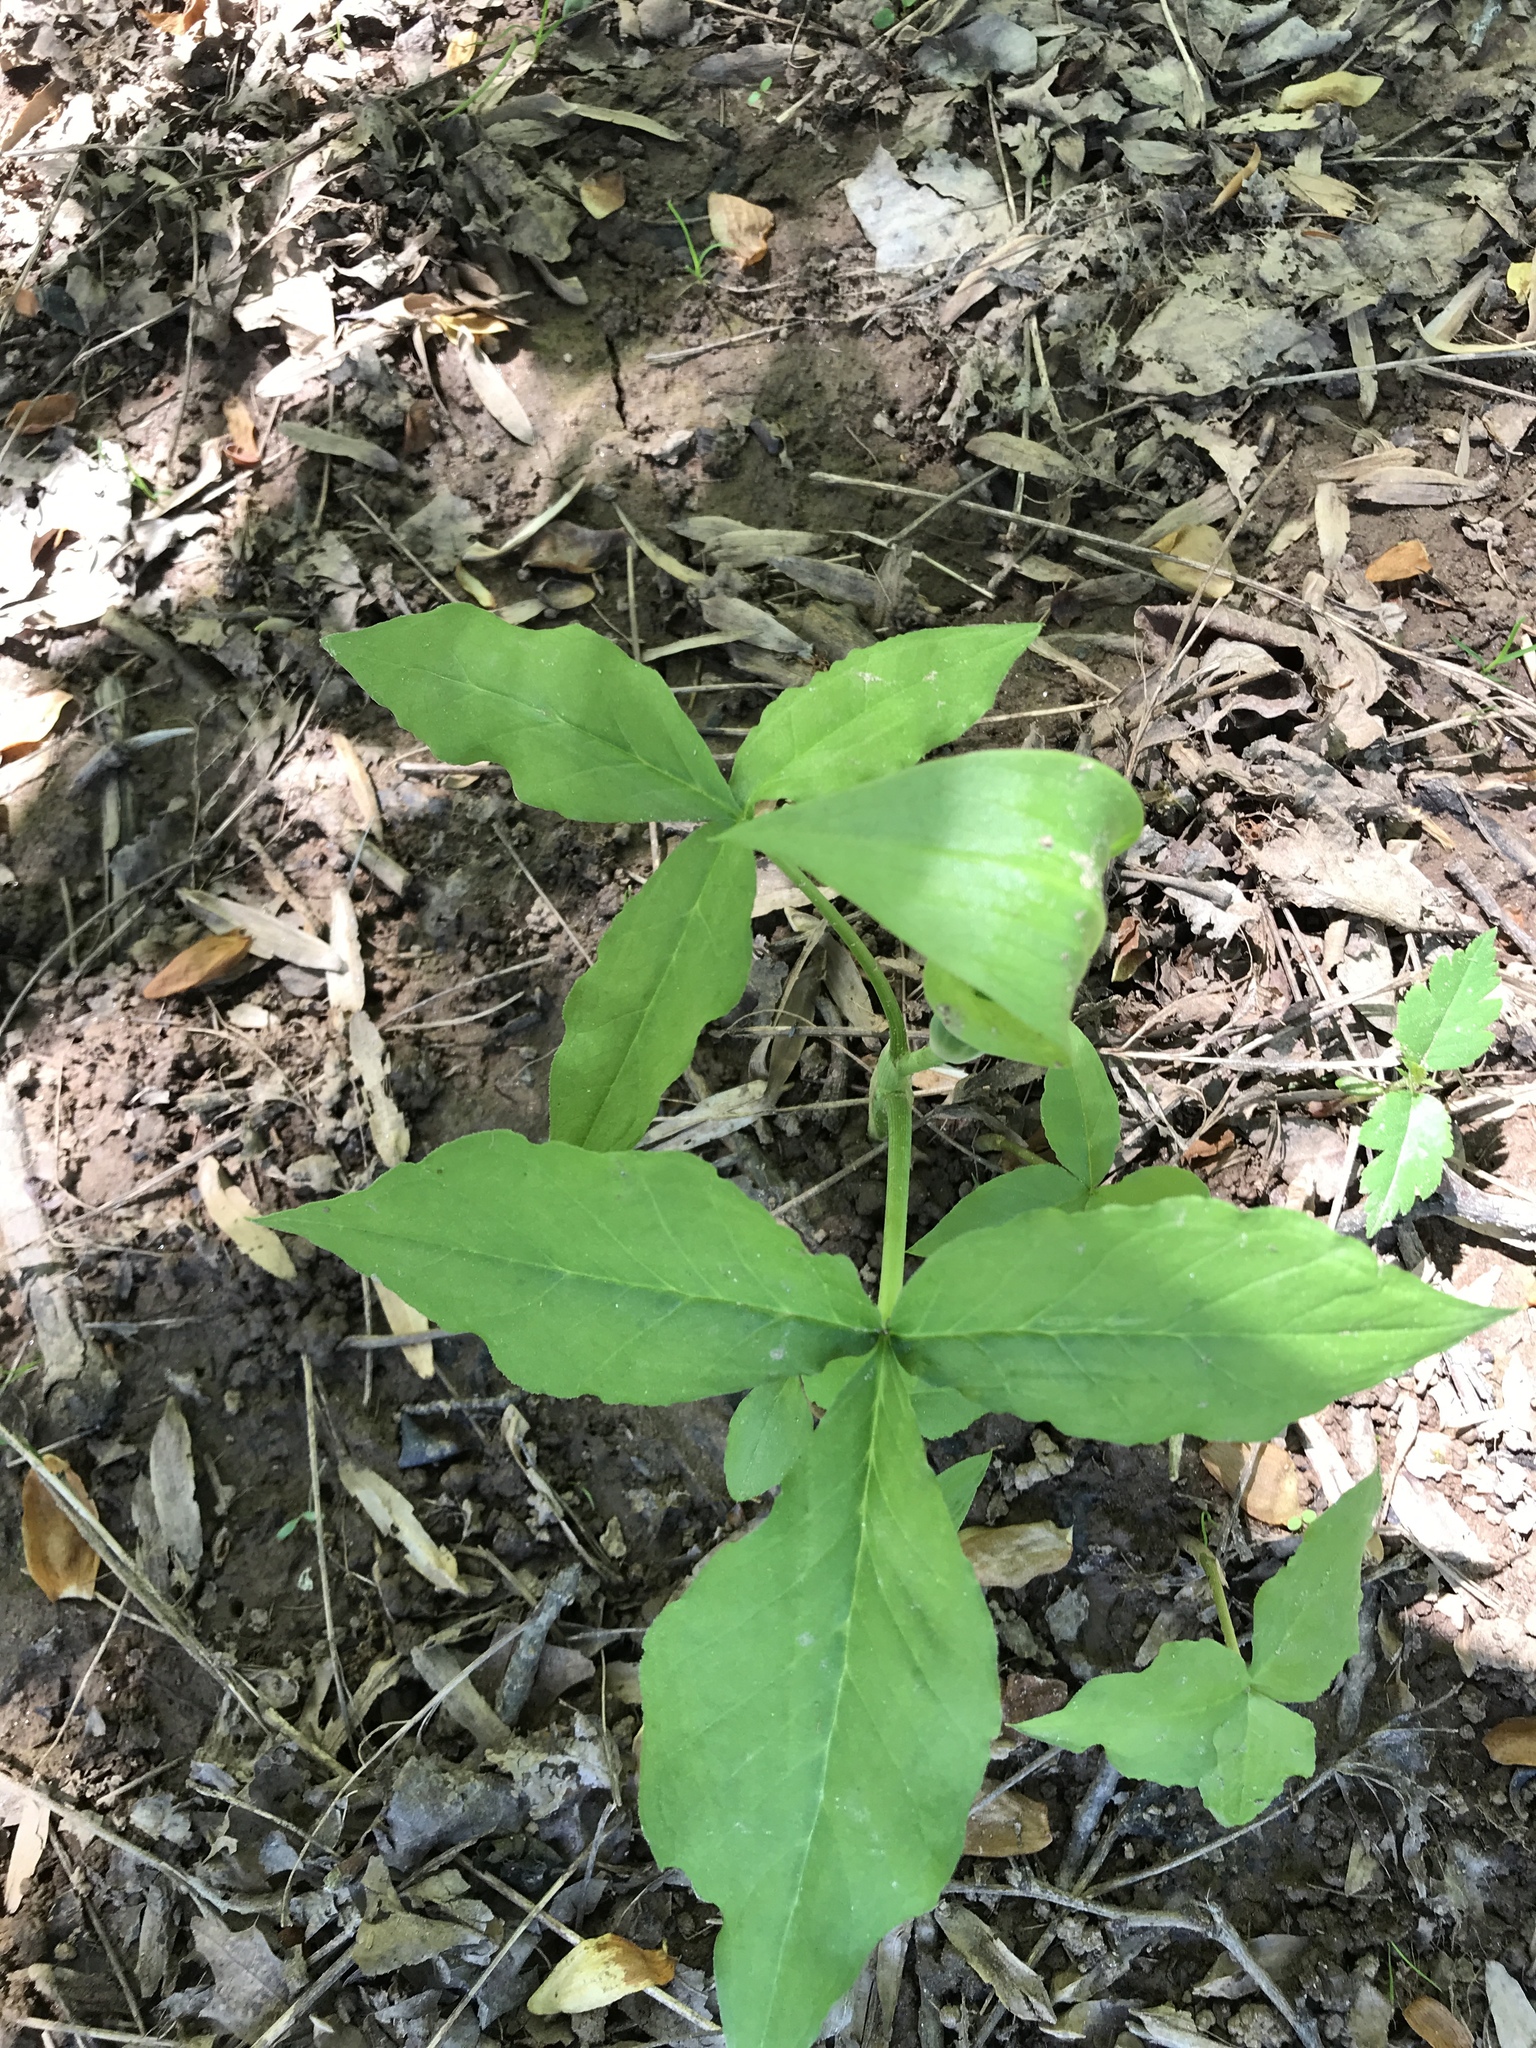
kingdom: Plantae
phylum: Tracheophyta
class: Liliopsida
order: Alismatales
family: Araceae
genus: Arisaema
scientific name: Arisaema triphyllum
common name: Jack-in-the-pulpit
